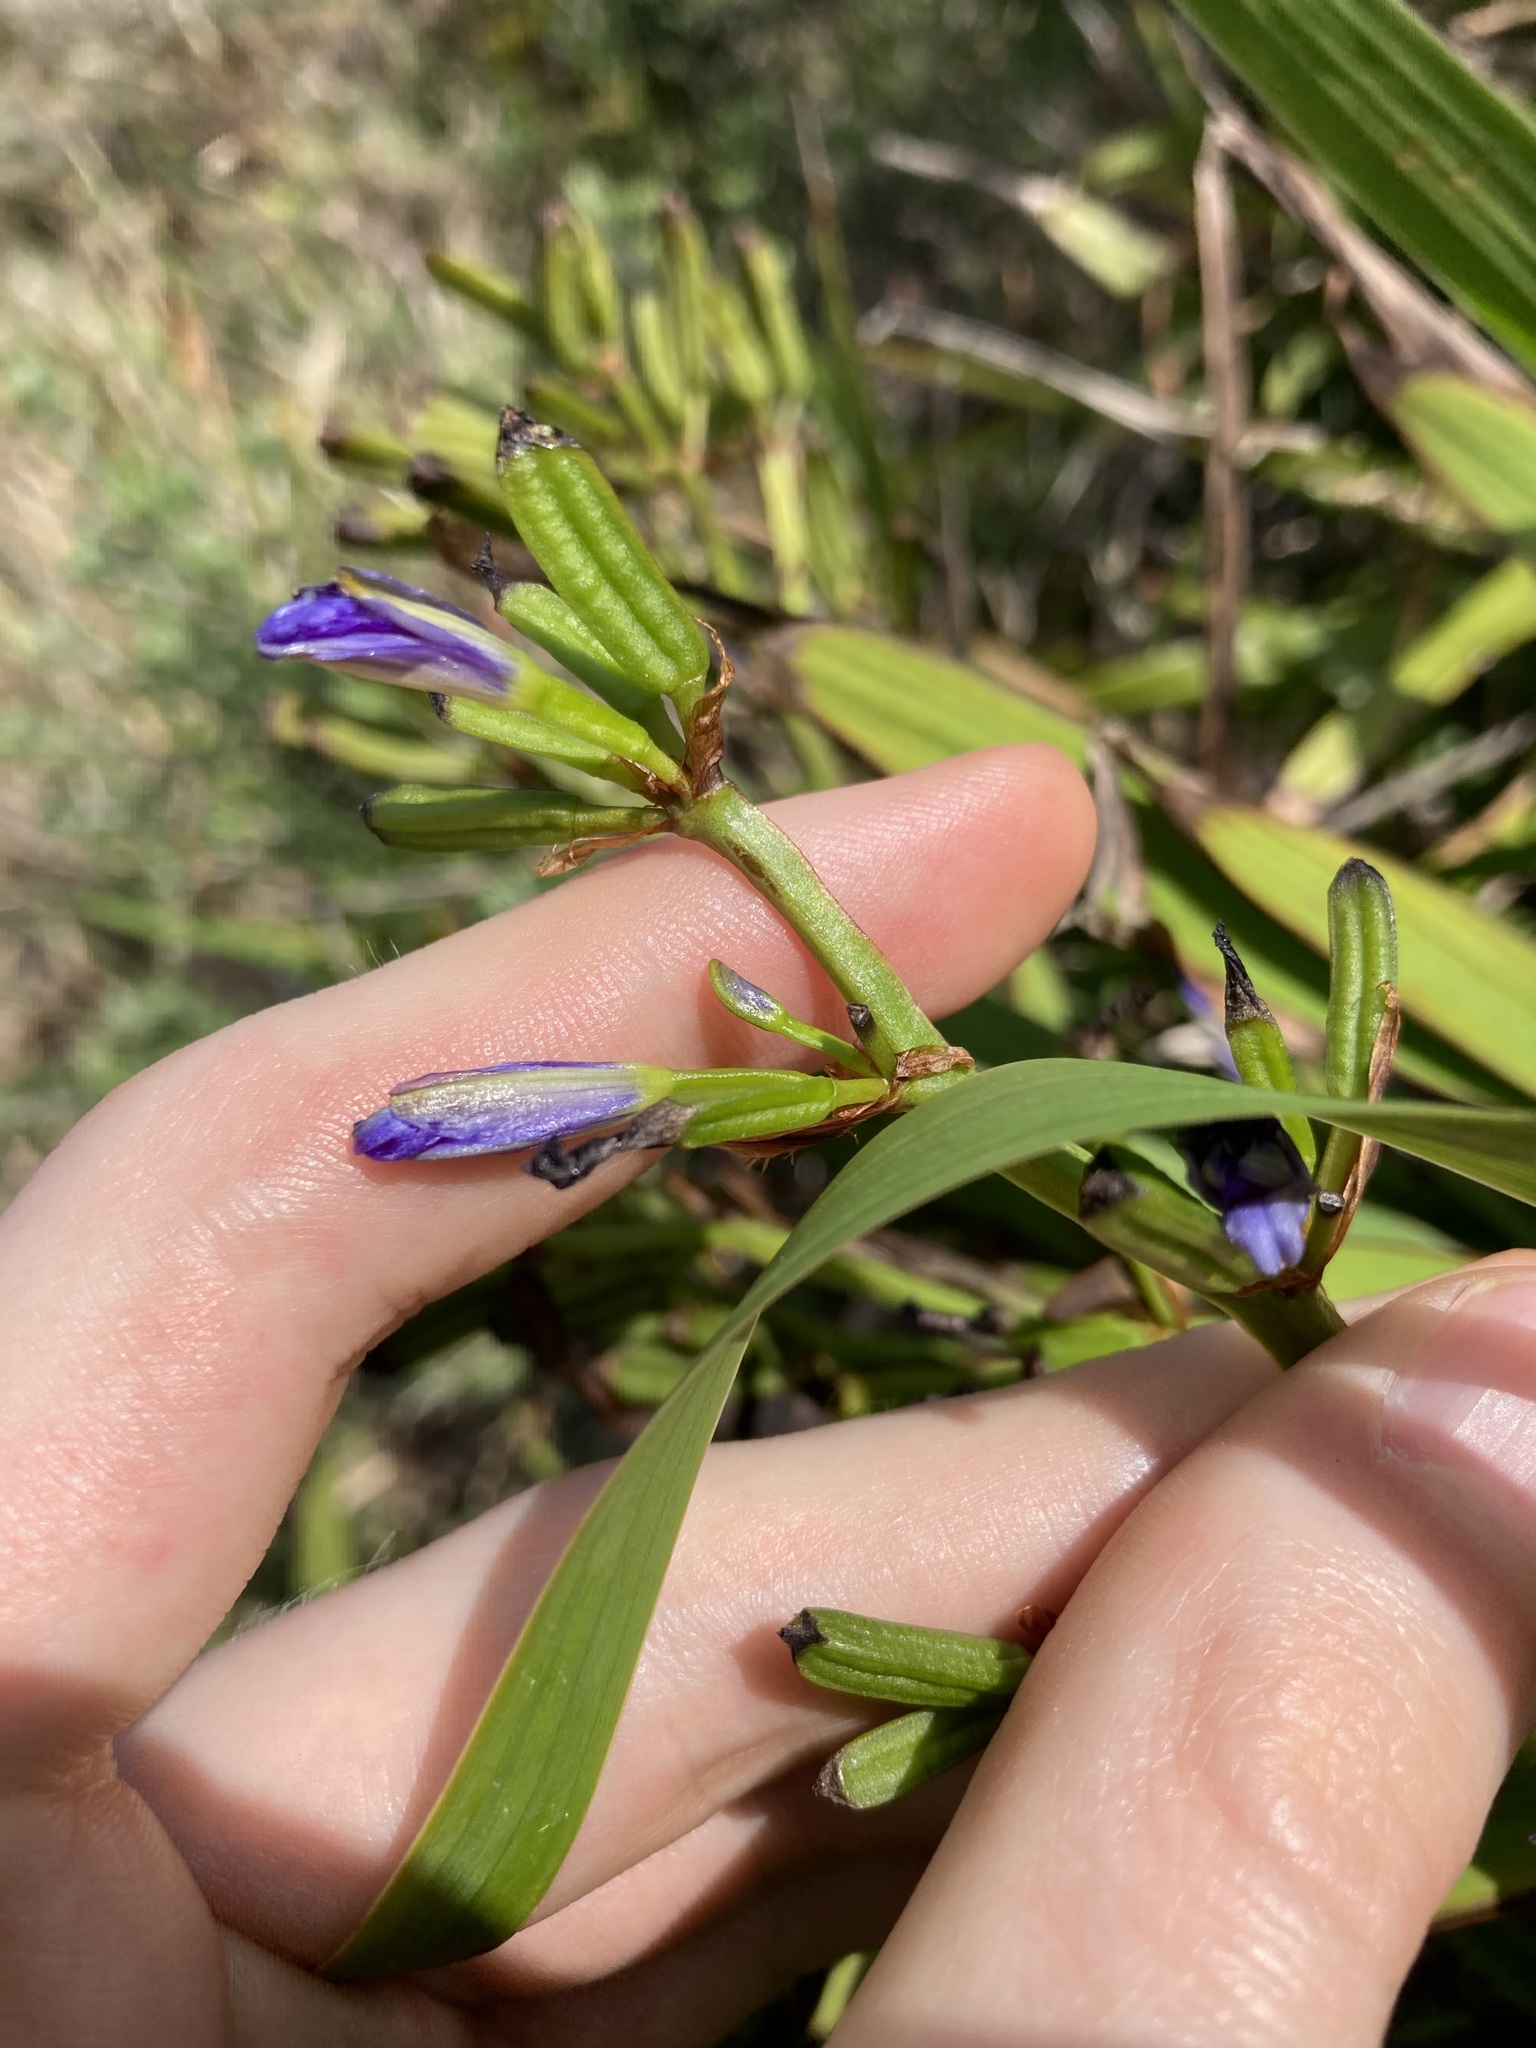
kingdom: Plantae
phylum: Tracheophyta
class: Liliopsida
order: Asparagales
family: Iridaceae
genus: Aristea
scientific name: Aristea ecklonii
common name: Blue corn-lily
